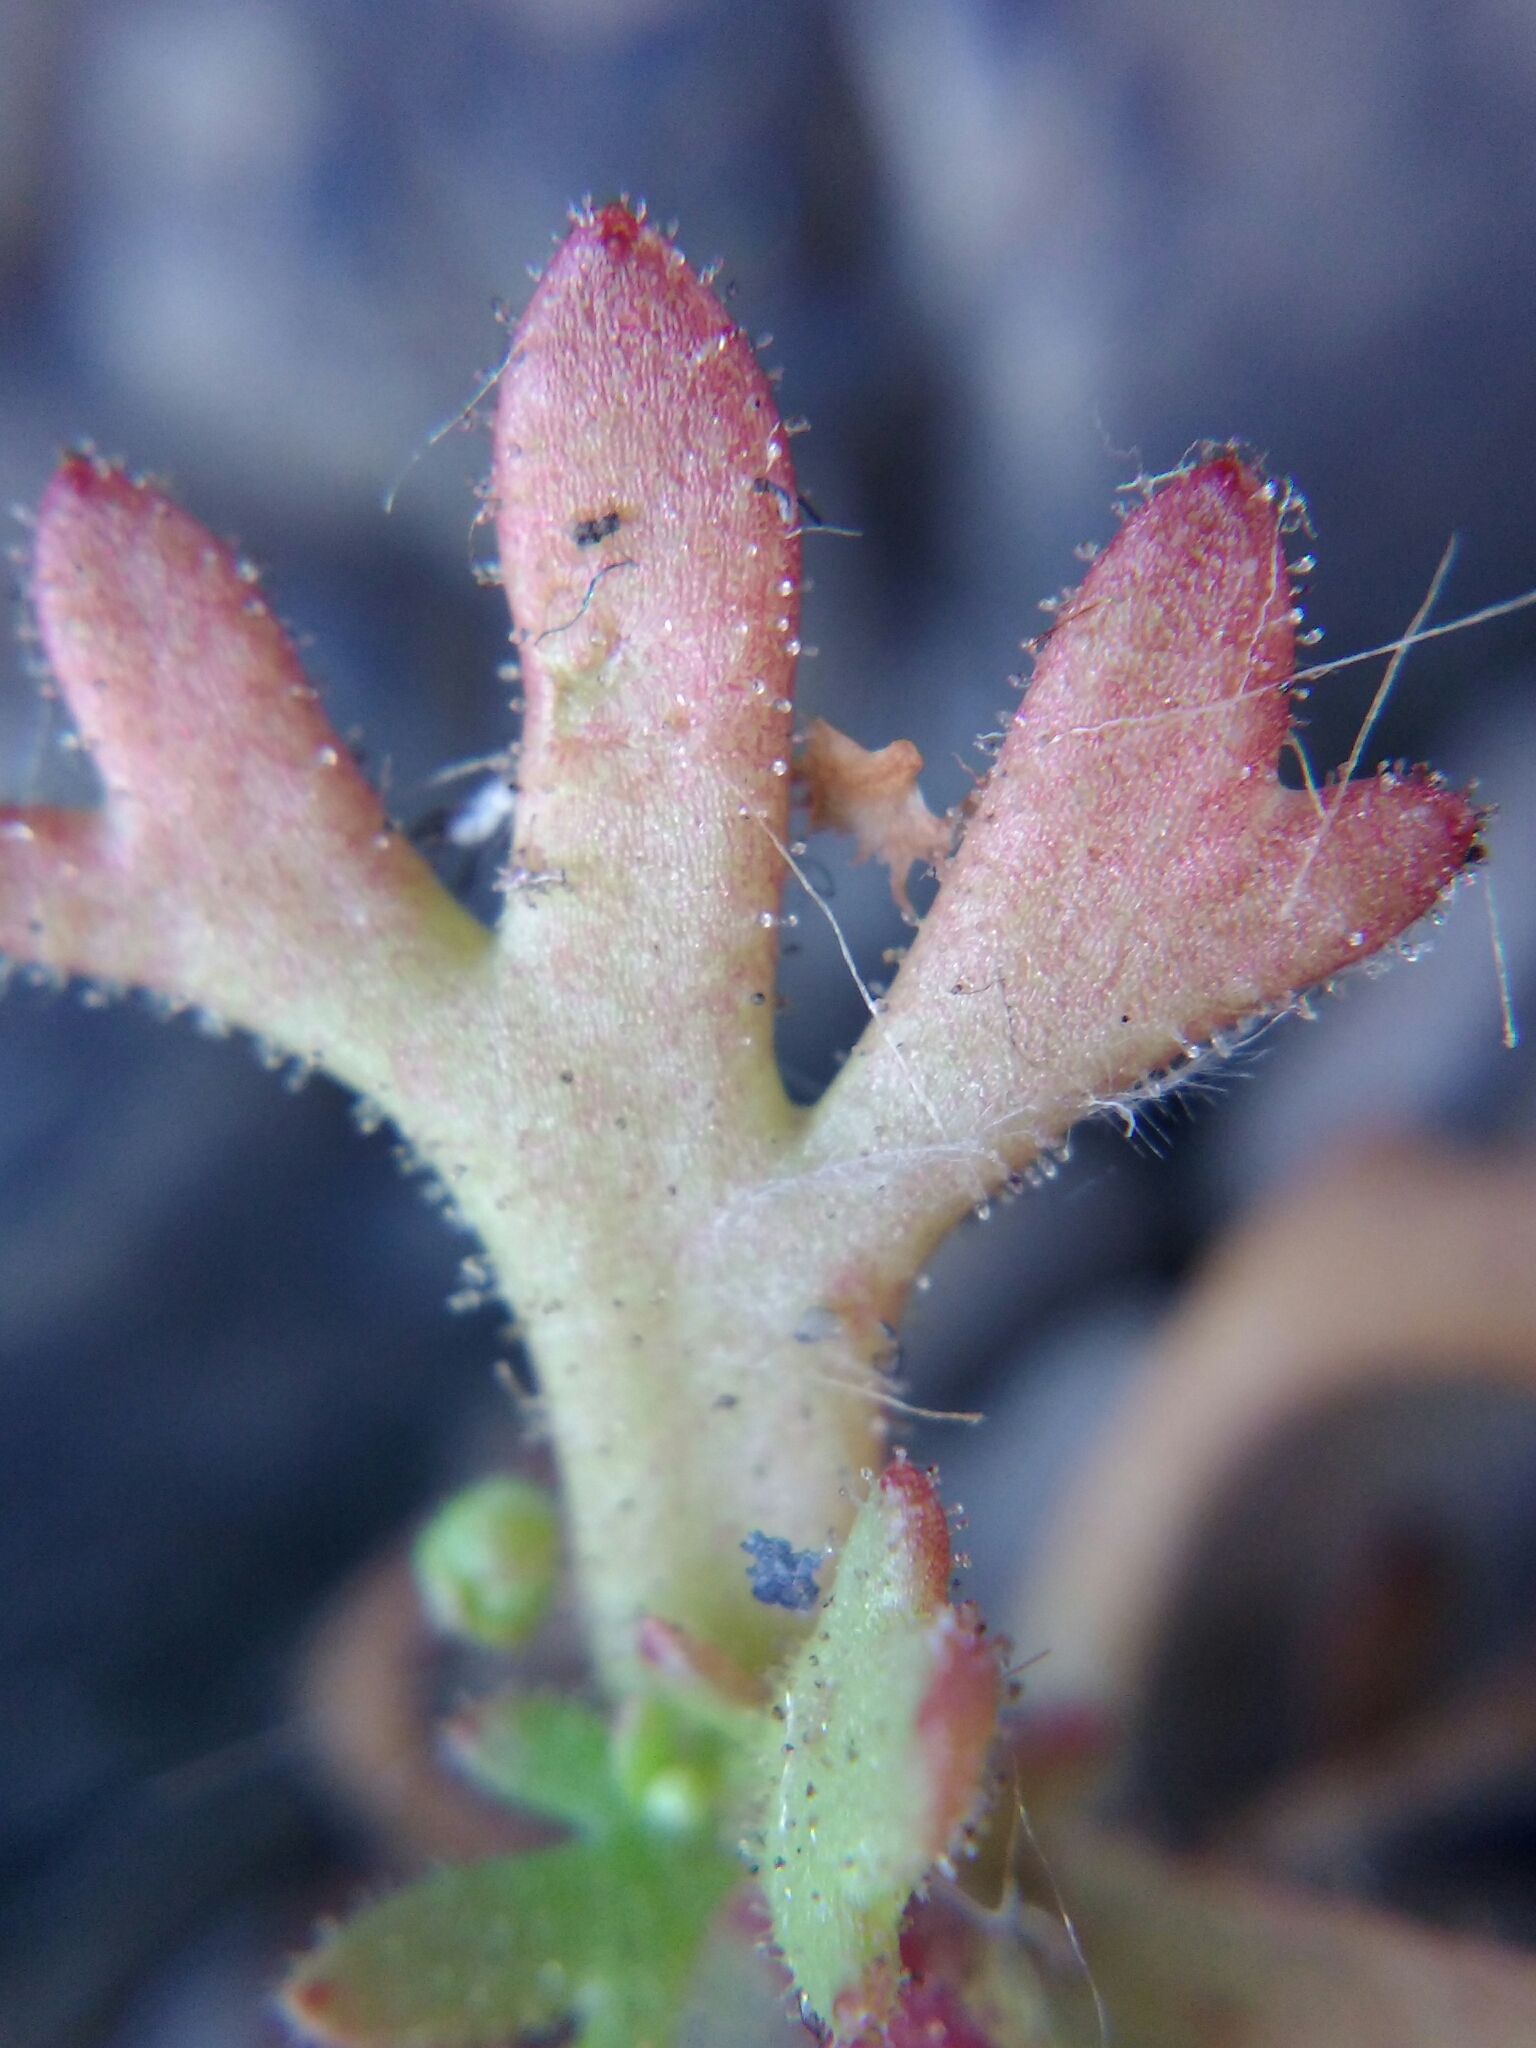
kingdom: Plantae
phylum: Tracheophyta
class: Magnoliopsida
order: Saxifragales
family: Saxifragaceae
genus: Saxifraga
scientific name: Saxifraga tridactylites
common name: Rue-leaved saxifrage
